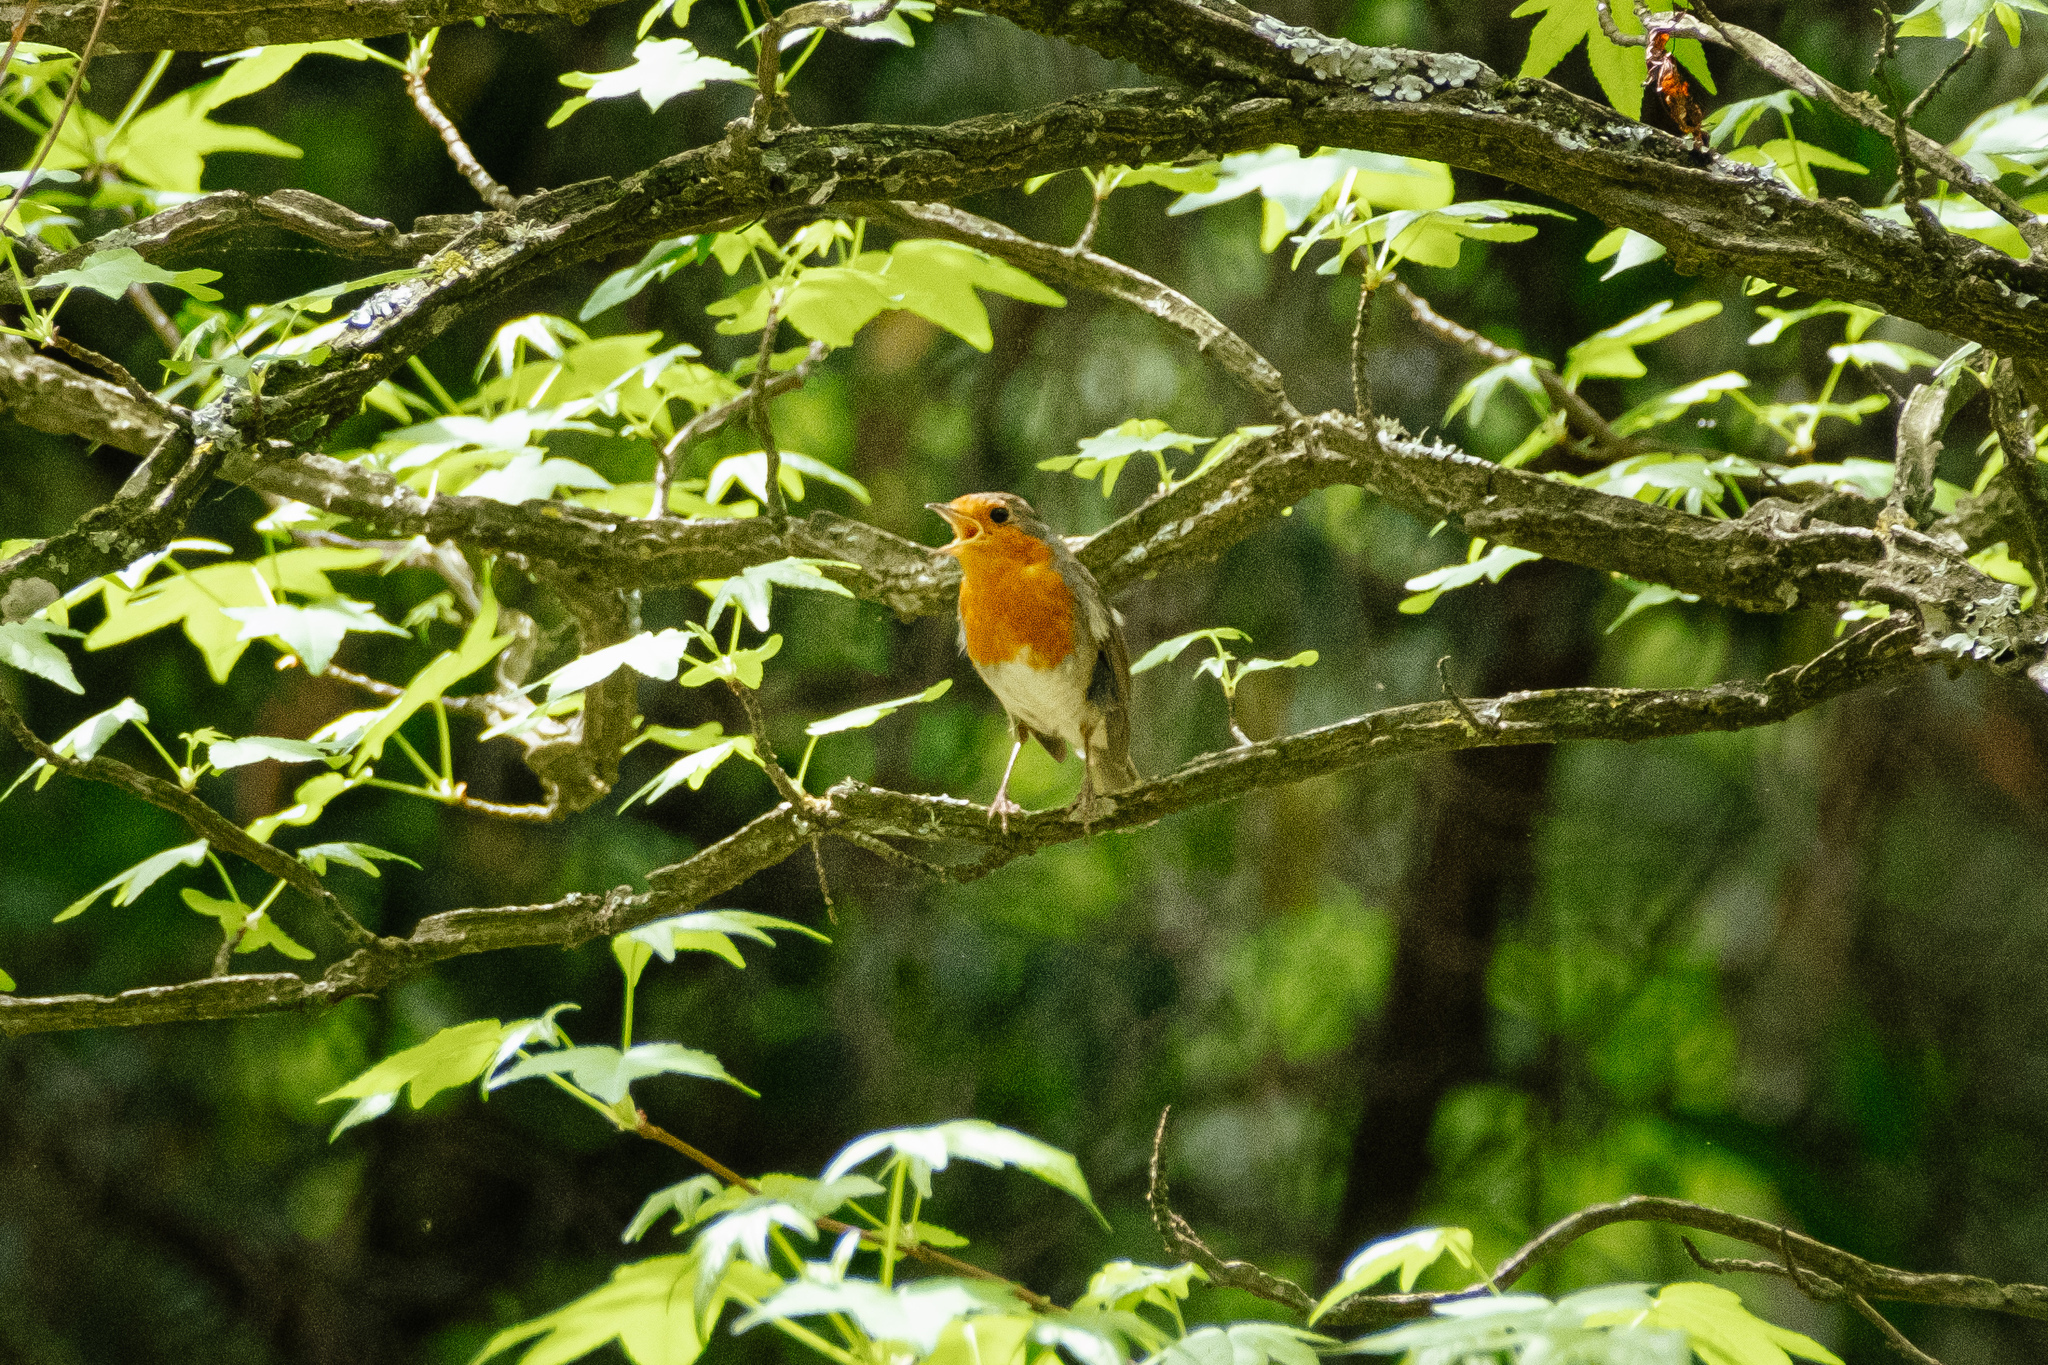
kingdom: Animalia
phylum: Chordata
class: Aves
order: Passeriformes
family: Muscicapidae
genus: Erithacus
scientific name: Erithacus rubecula
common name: European robin
